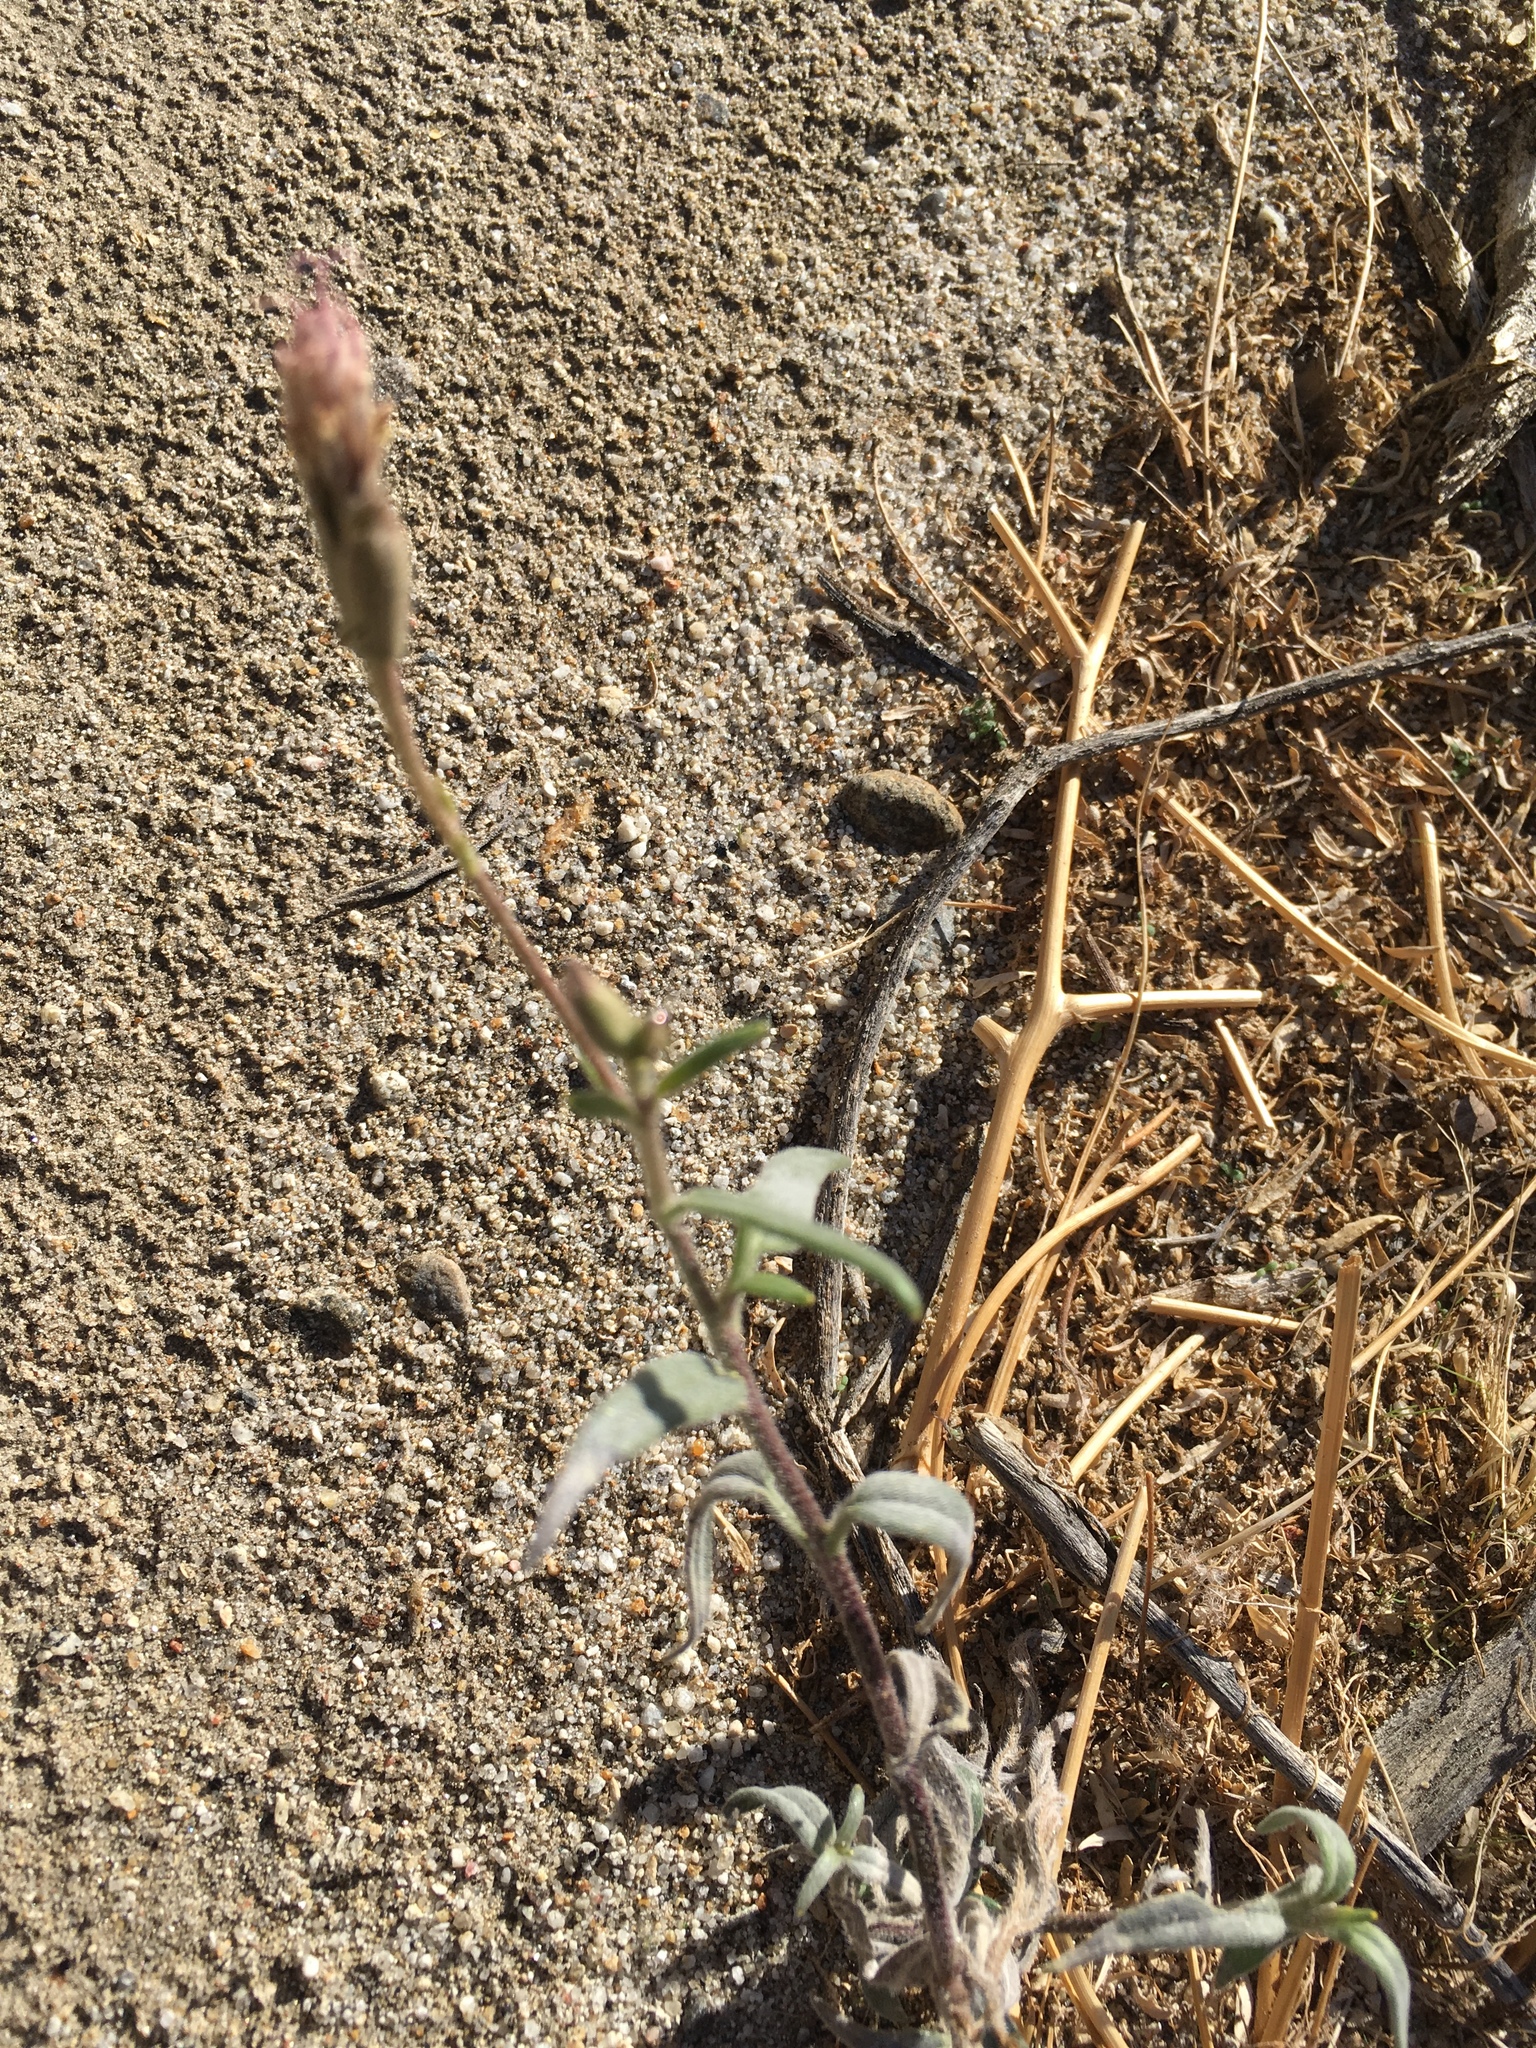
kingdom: Plantae
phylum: Tracheophyta
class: Magnoliopsida
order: Asterales
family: Asteraceae
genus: Palafoxia
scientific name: Palafoxia arida
